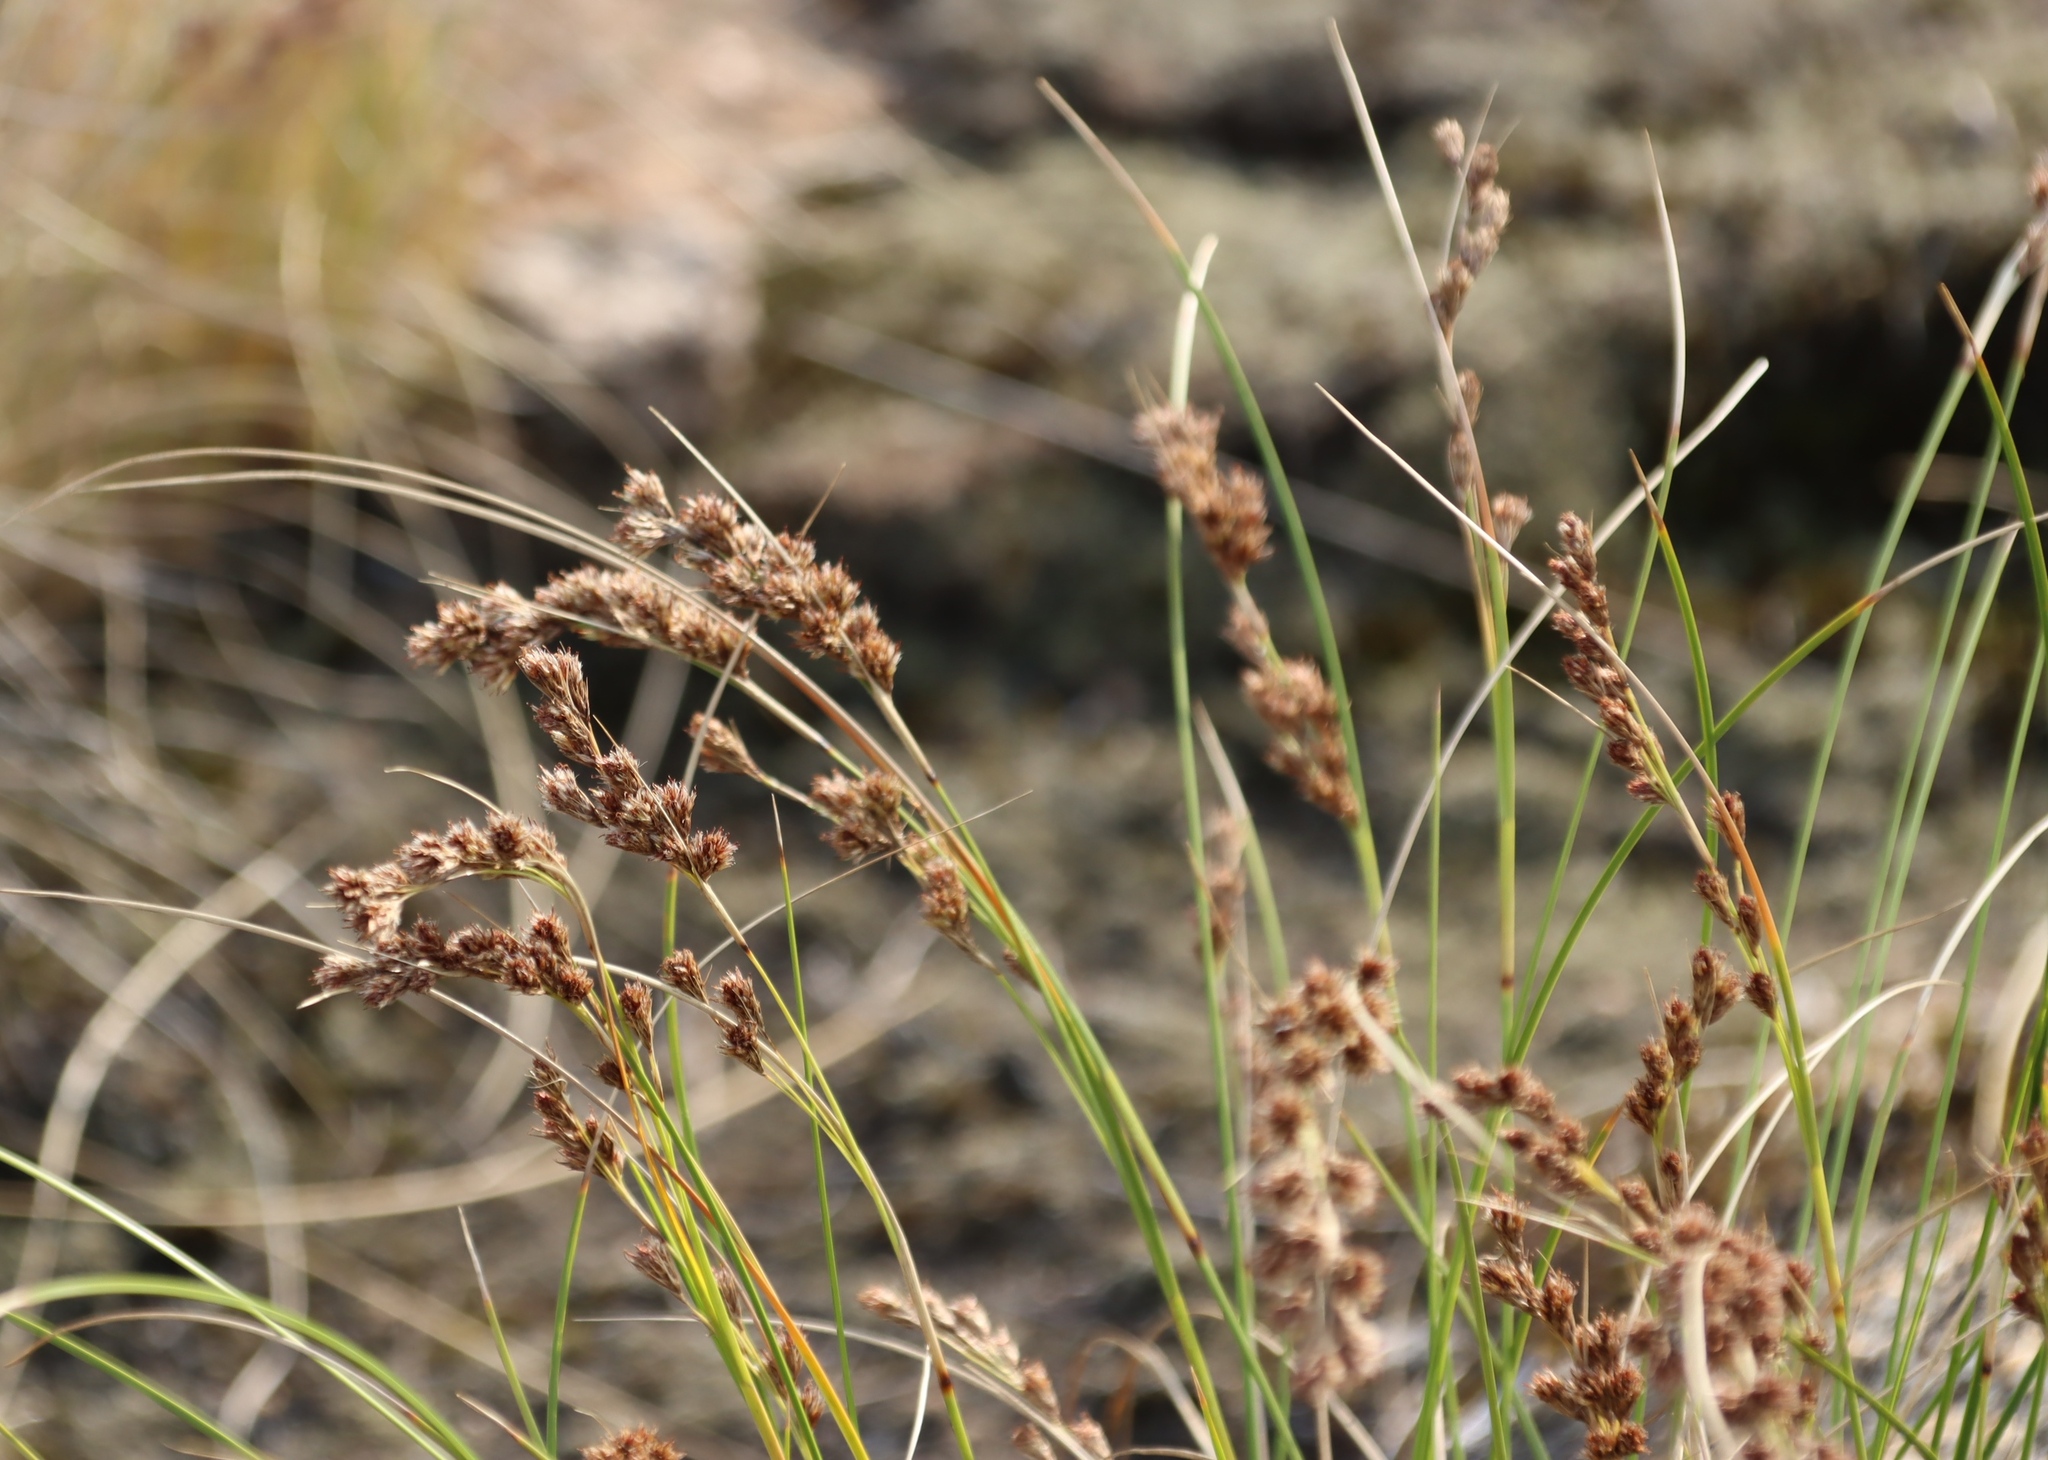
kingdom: Plantae
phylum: Tracheophyta
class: Liliopsida
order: Poales
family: Cyperaceae
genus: Coleochloa
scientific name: Coleochloa setifera
